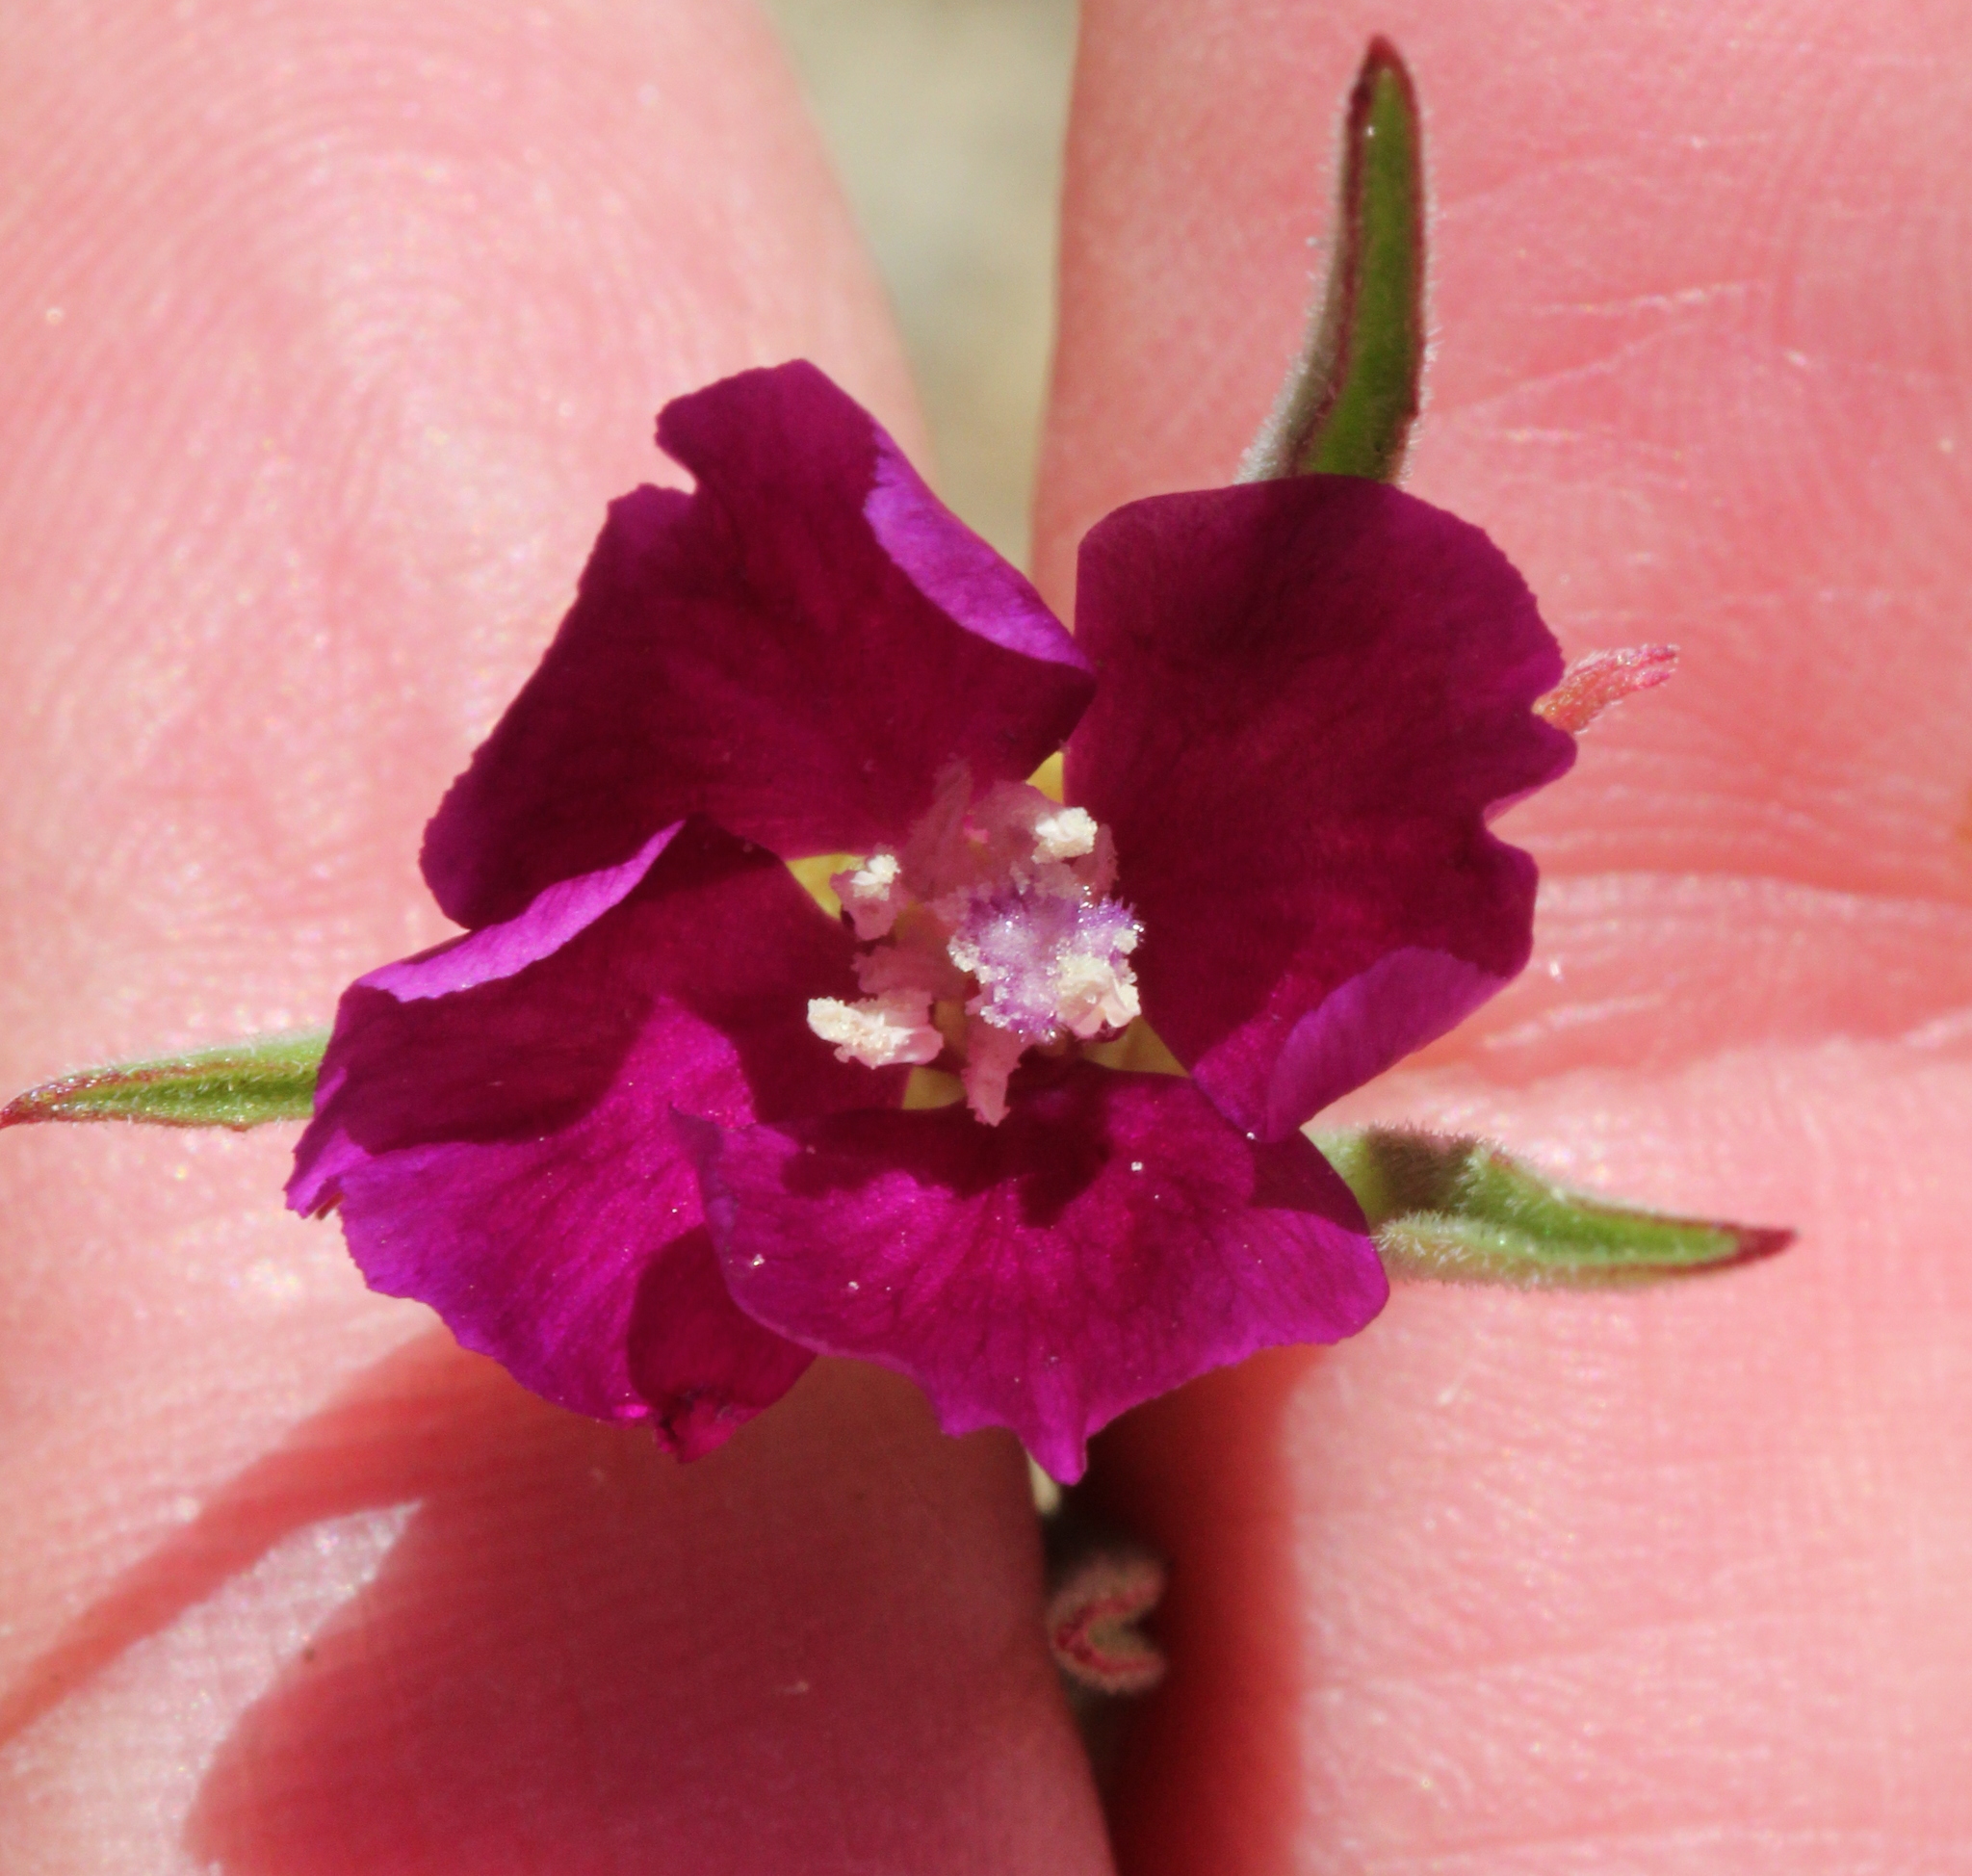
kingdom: Plantae
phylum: Tracheophyta
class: Magnoliopsida
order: Myrtales
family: Onagraceae
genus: Clarkia
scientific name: Clarkia purpurea
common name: Purple clarkia
